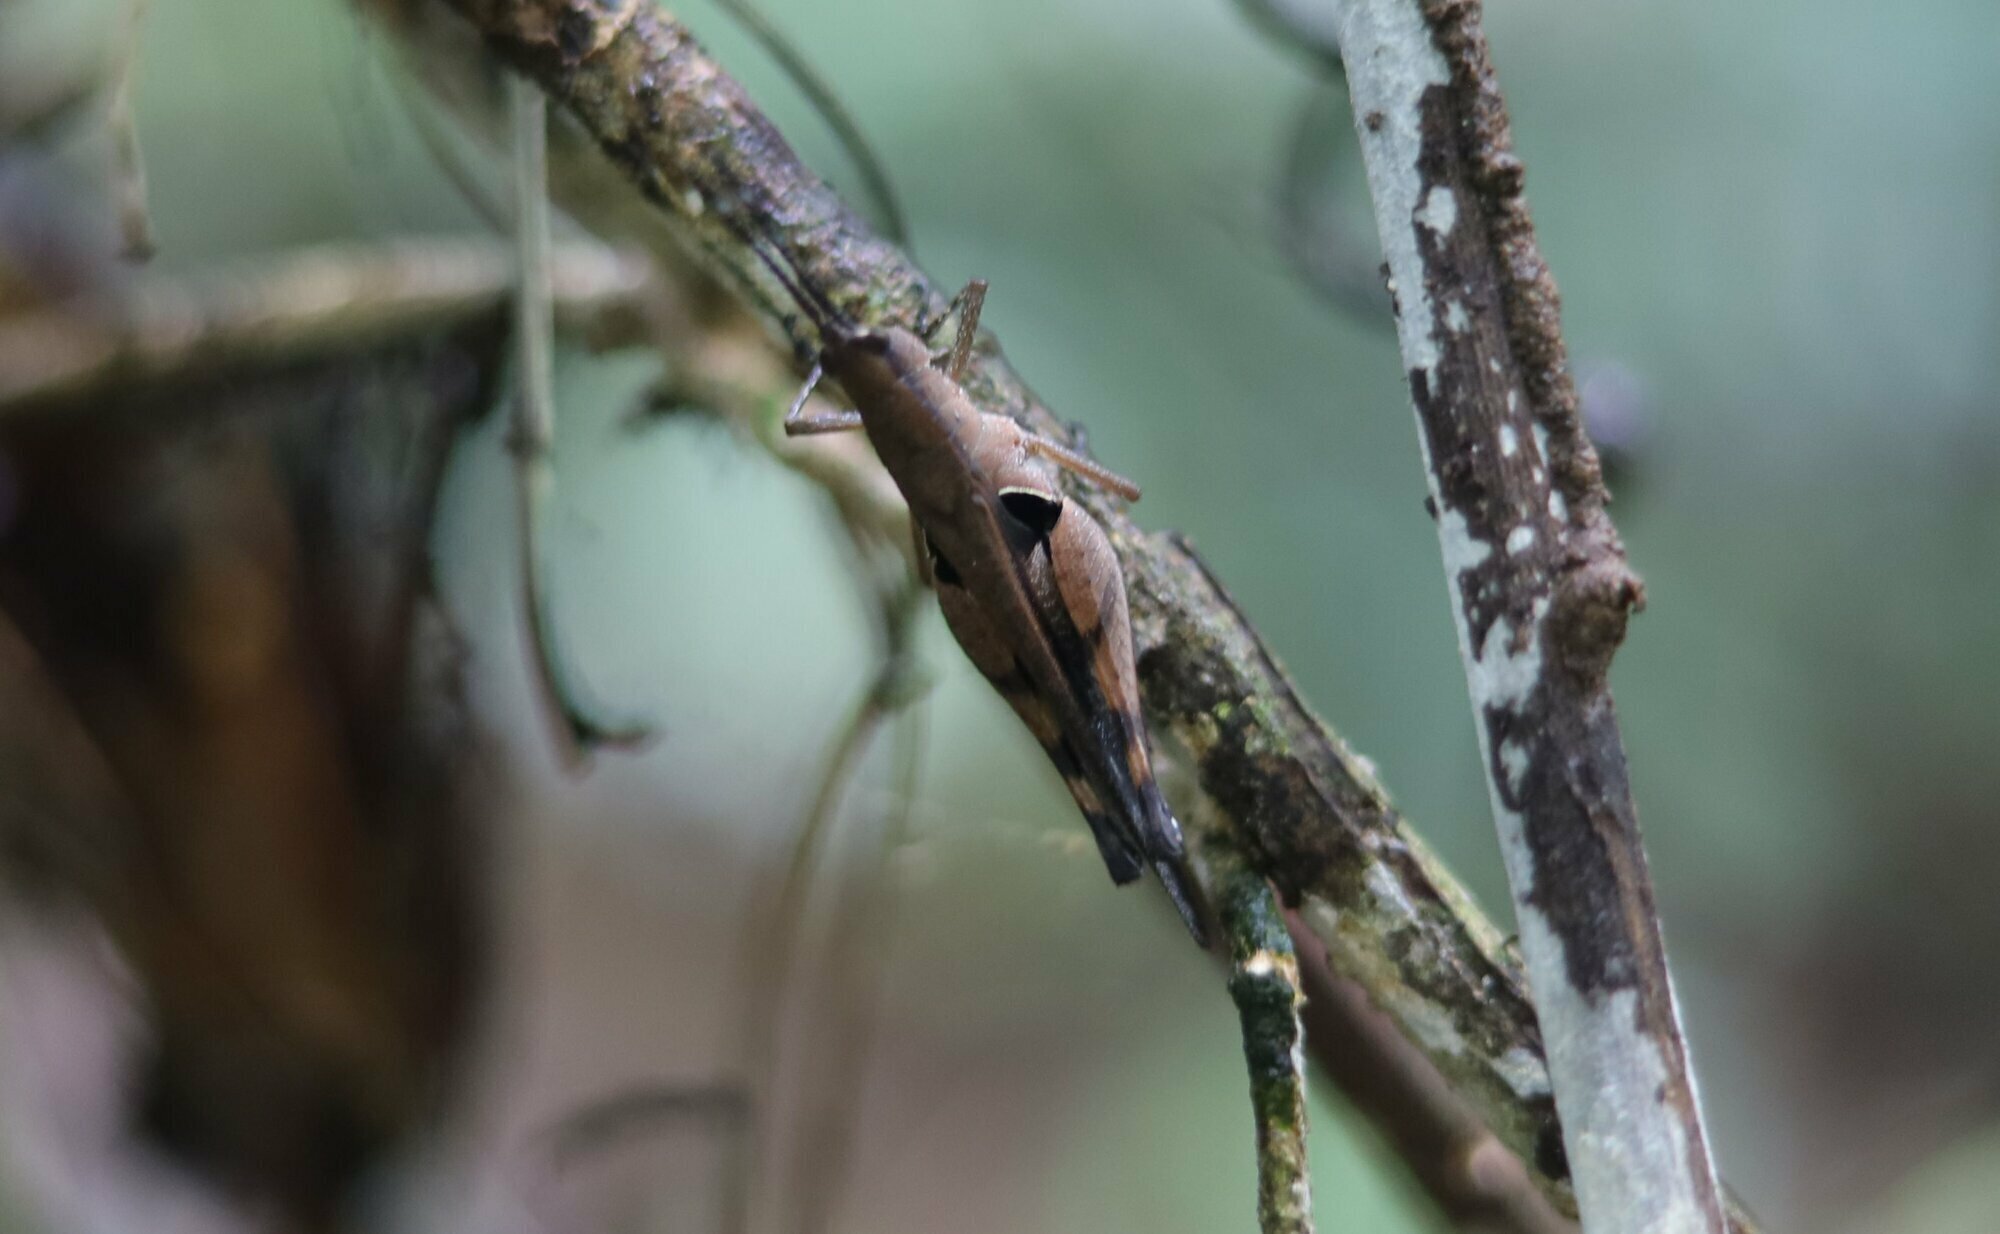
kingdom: Animalia
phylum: Arthropoda
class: Insecta
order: Orthoptera
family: Acrididae
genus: Xiphiola
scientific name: Xiphiola cyanoptera
